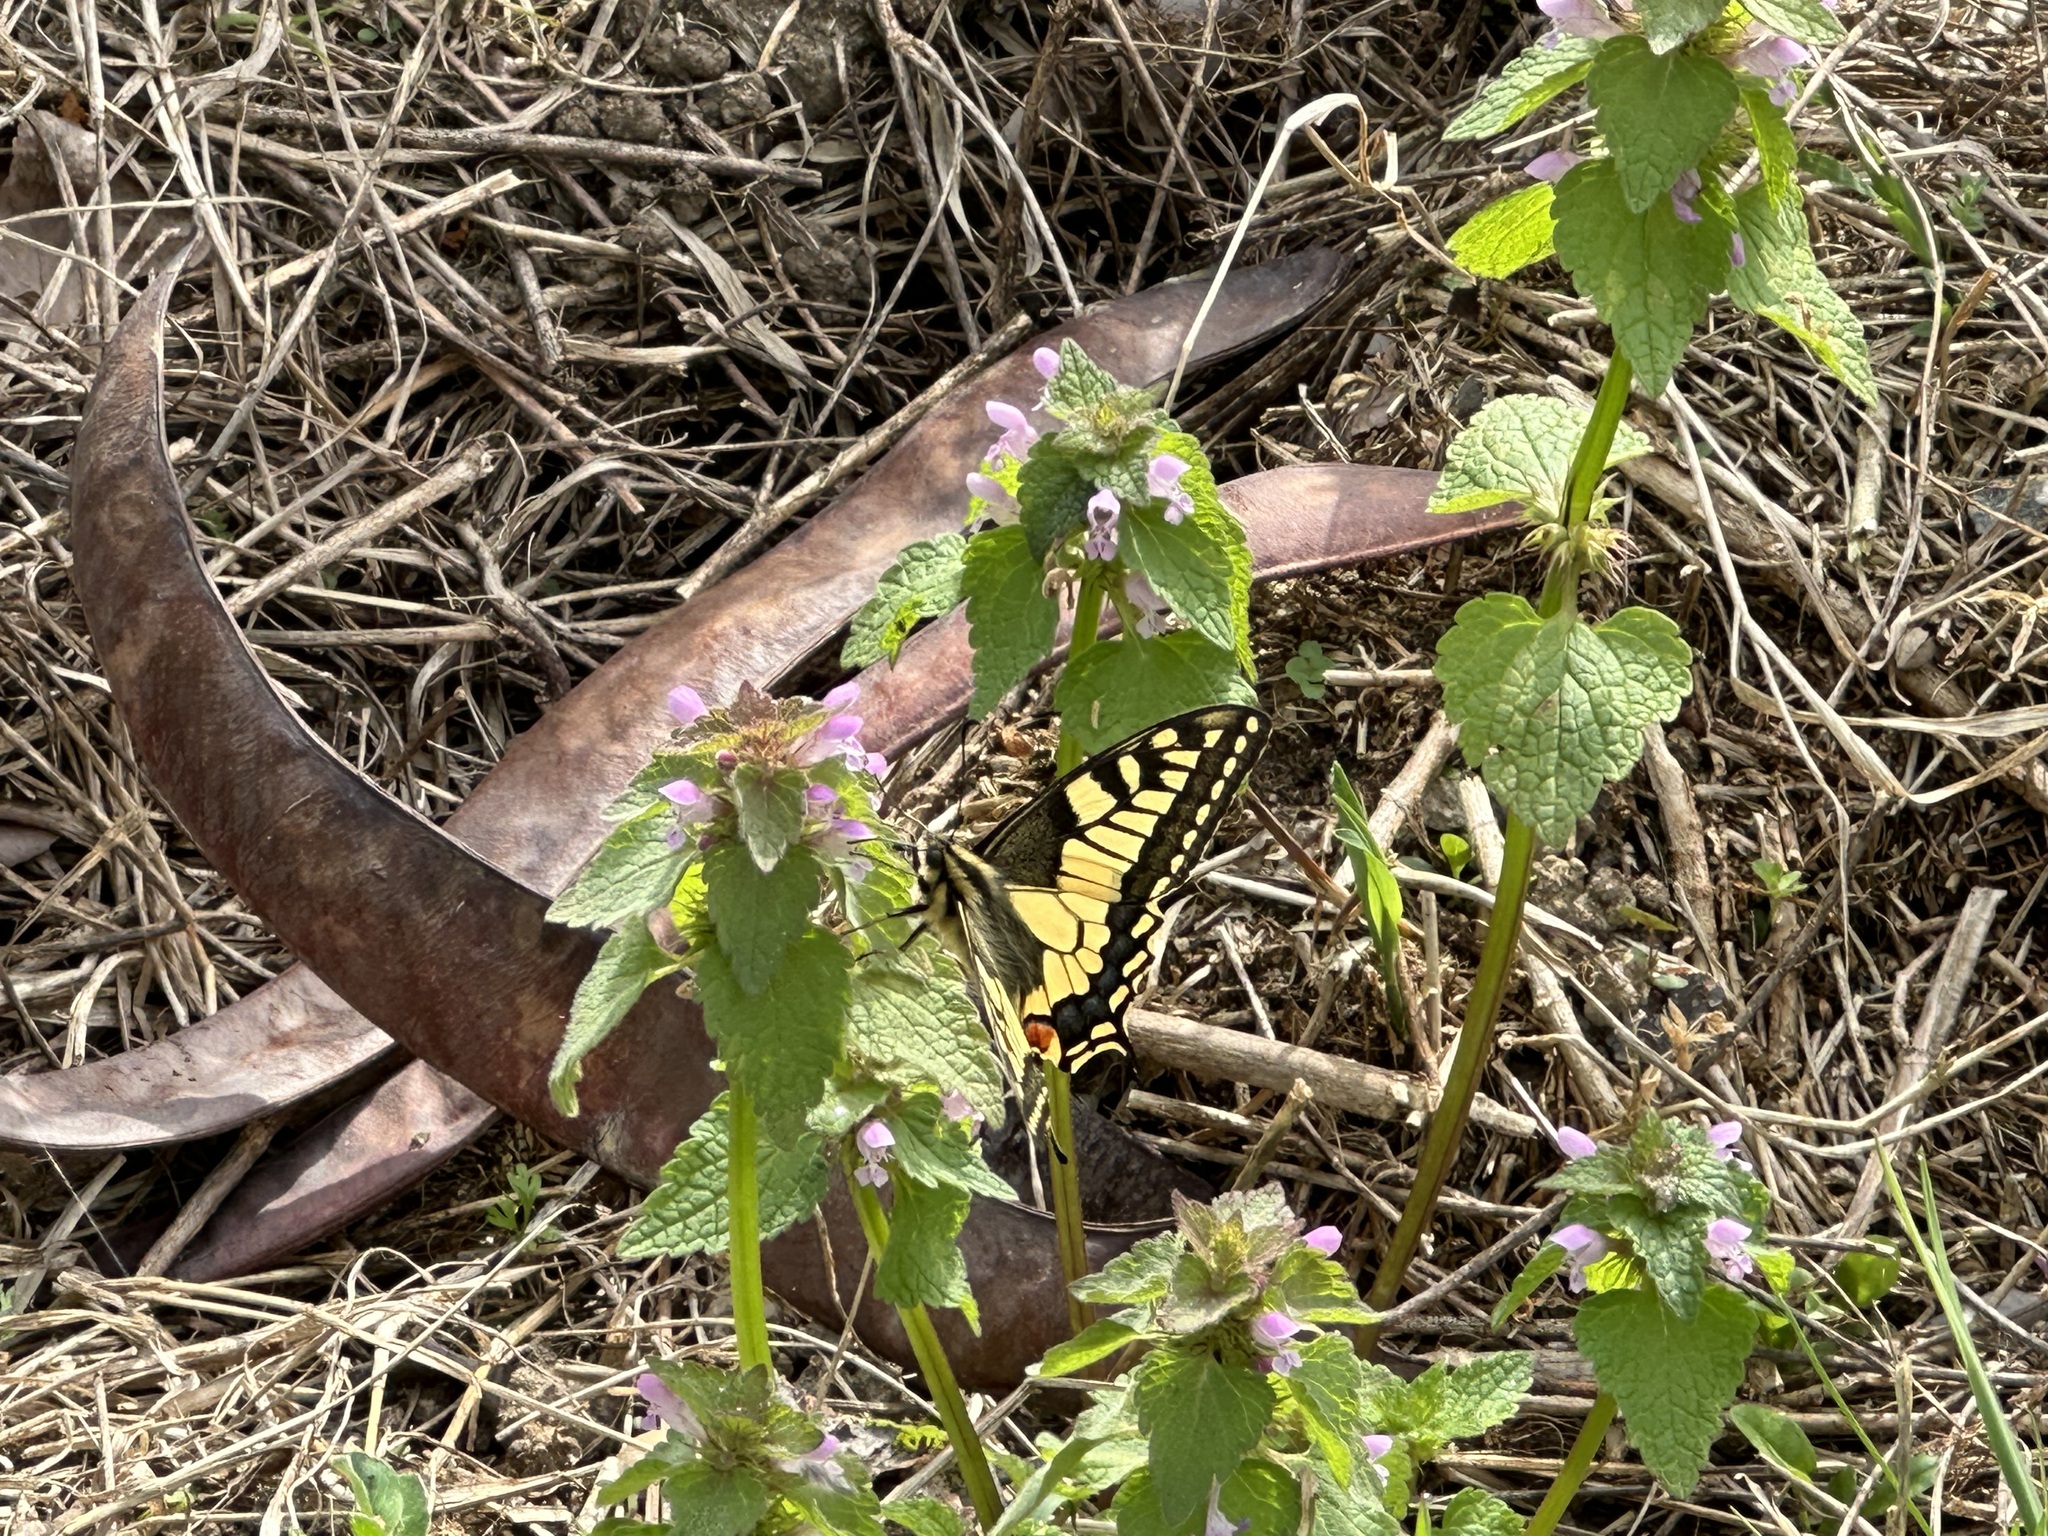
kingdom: Animalia
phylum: Arthropoda
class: Insecta
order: Lepidoptera
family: Papilionidae
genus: Papilio
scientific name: Papilio machaon
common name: Swallowtail
